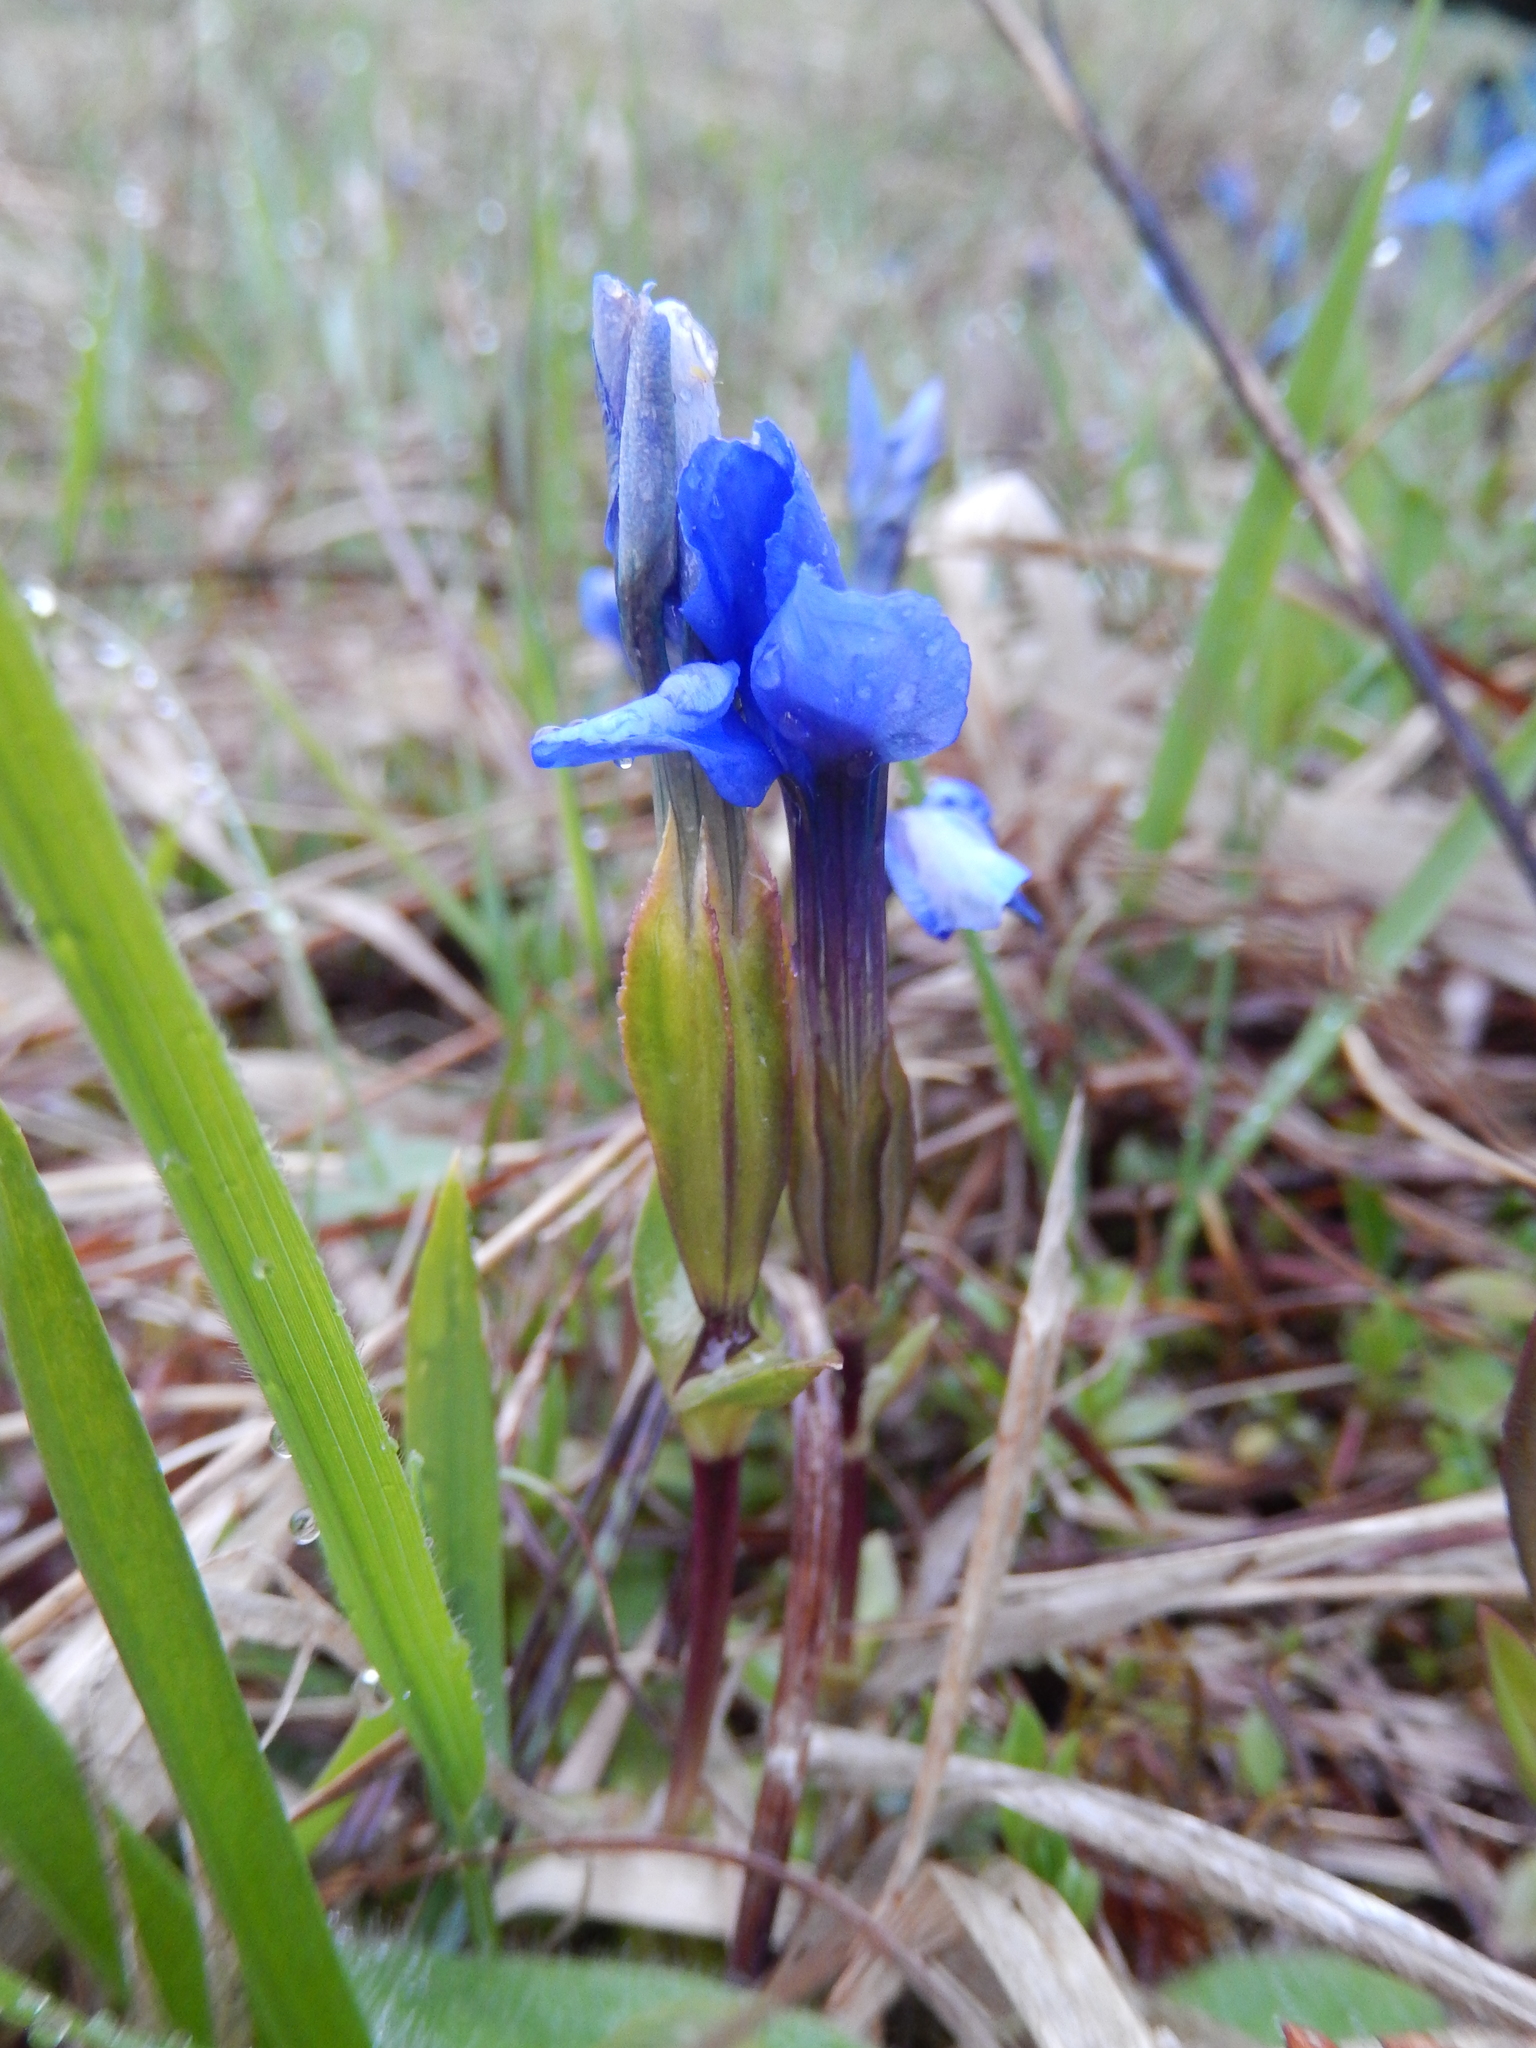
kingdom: Plantae
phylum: Tracheophyta
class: Magnoliopsida
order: Gentianales
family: Gentianaceae
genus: Gentiana
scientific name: Gentiana verna
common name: Spring gentian
